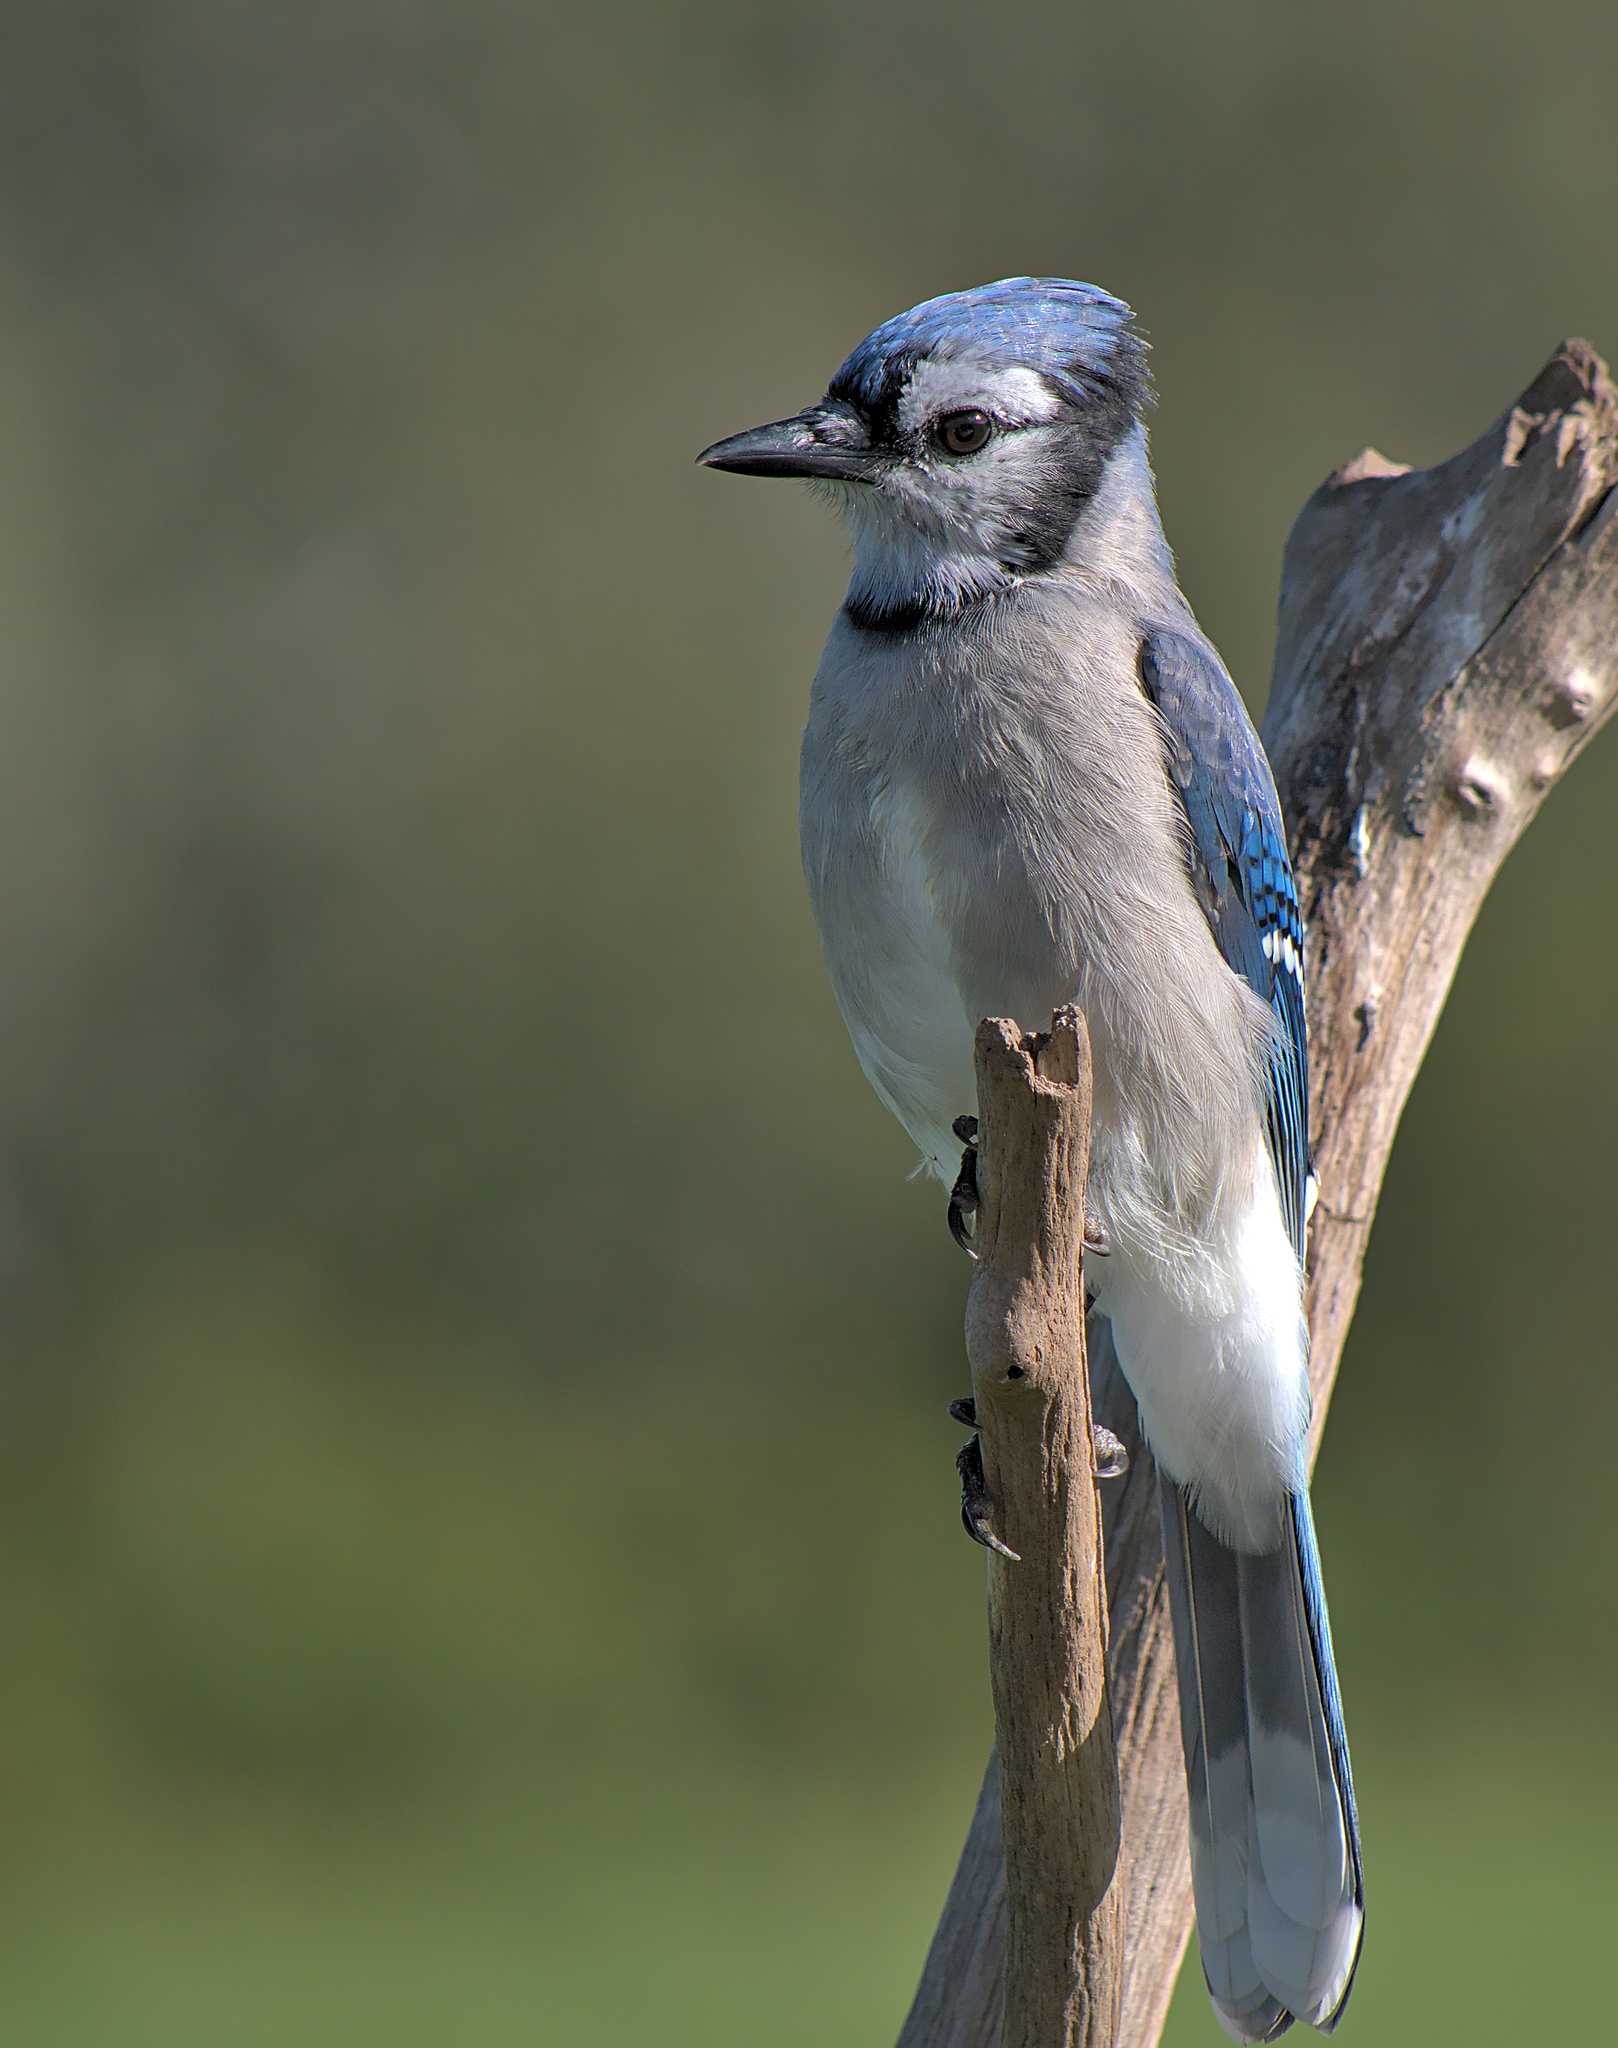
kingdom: Animalia
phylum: Chordata
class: Aves
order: Passeriformes
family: Corvidae
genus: Cyanocitta
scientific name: Cyanocitta cristata
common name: Blue jay
